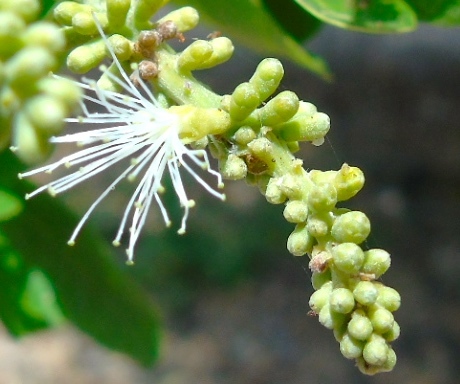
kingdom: Plantae
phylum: Tracheophyta
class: Magnoliopsida
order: Fabales
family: Fabaceae
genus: Pithecellobium
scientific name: Pithecellobium lanceolatum
